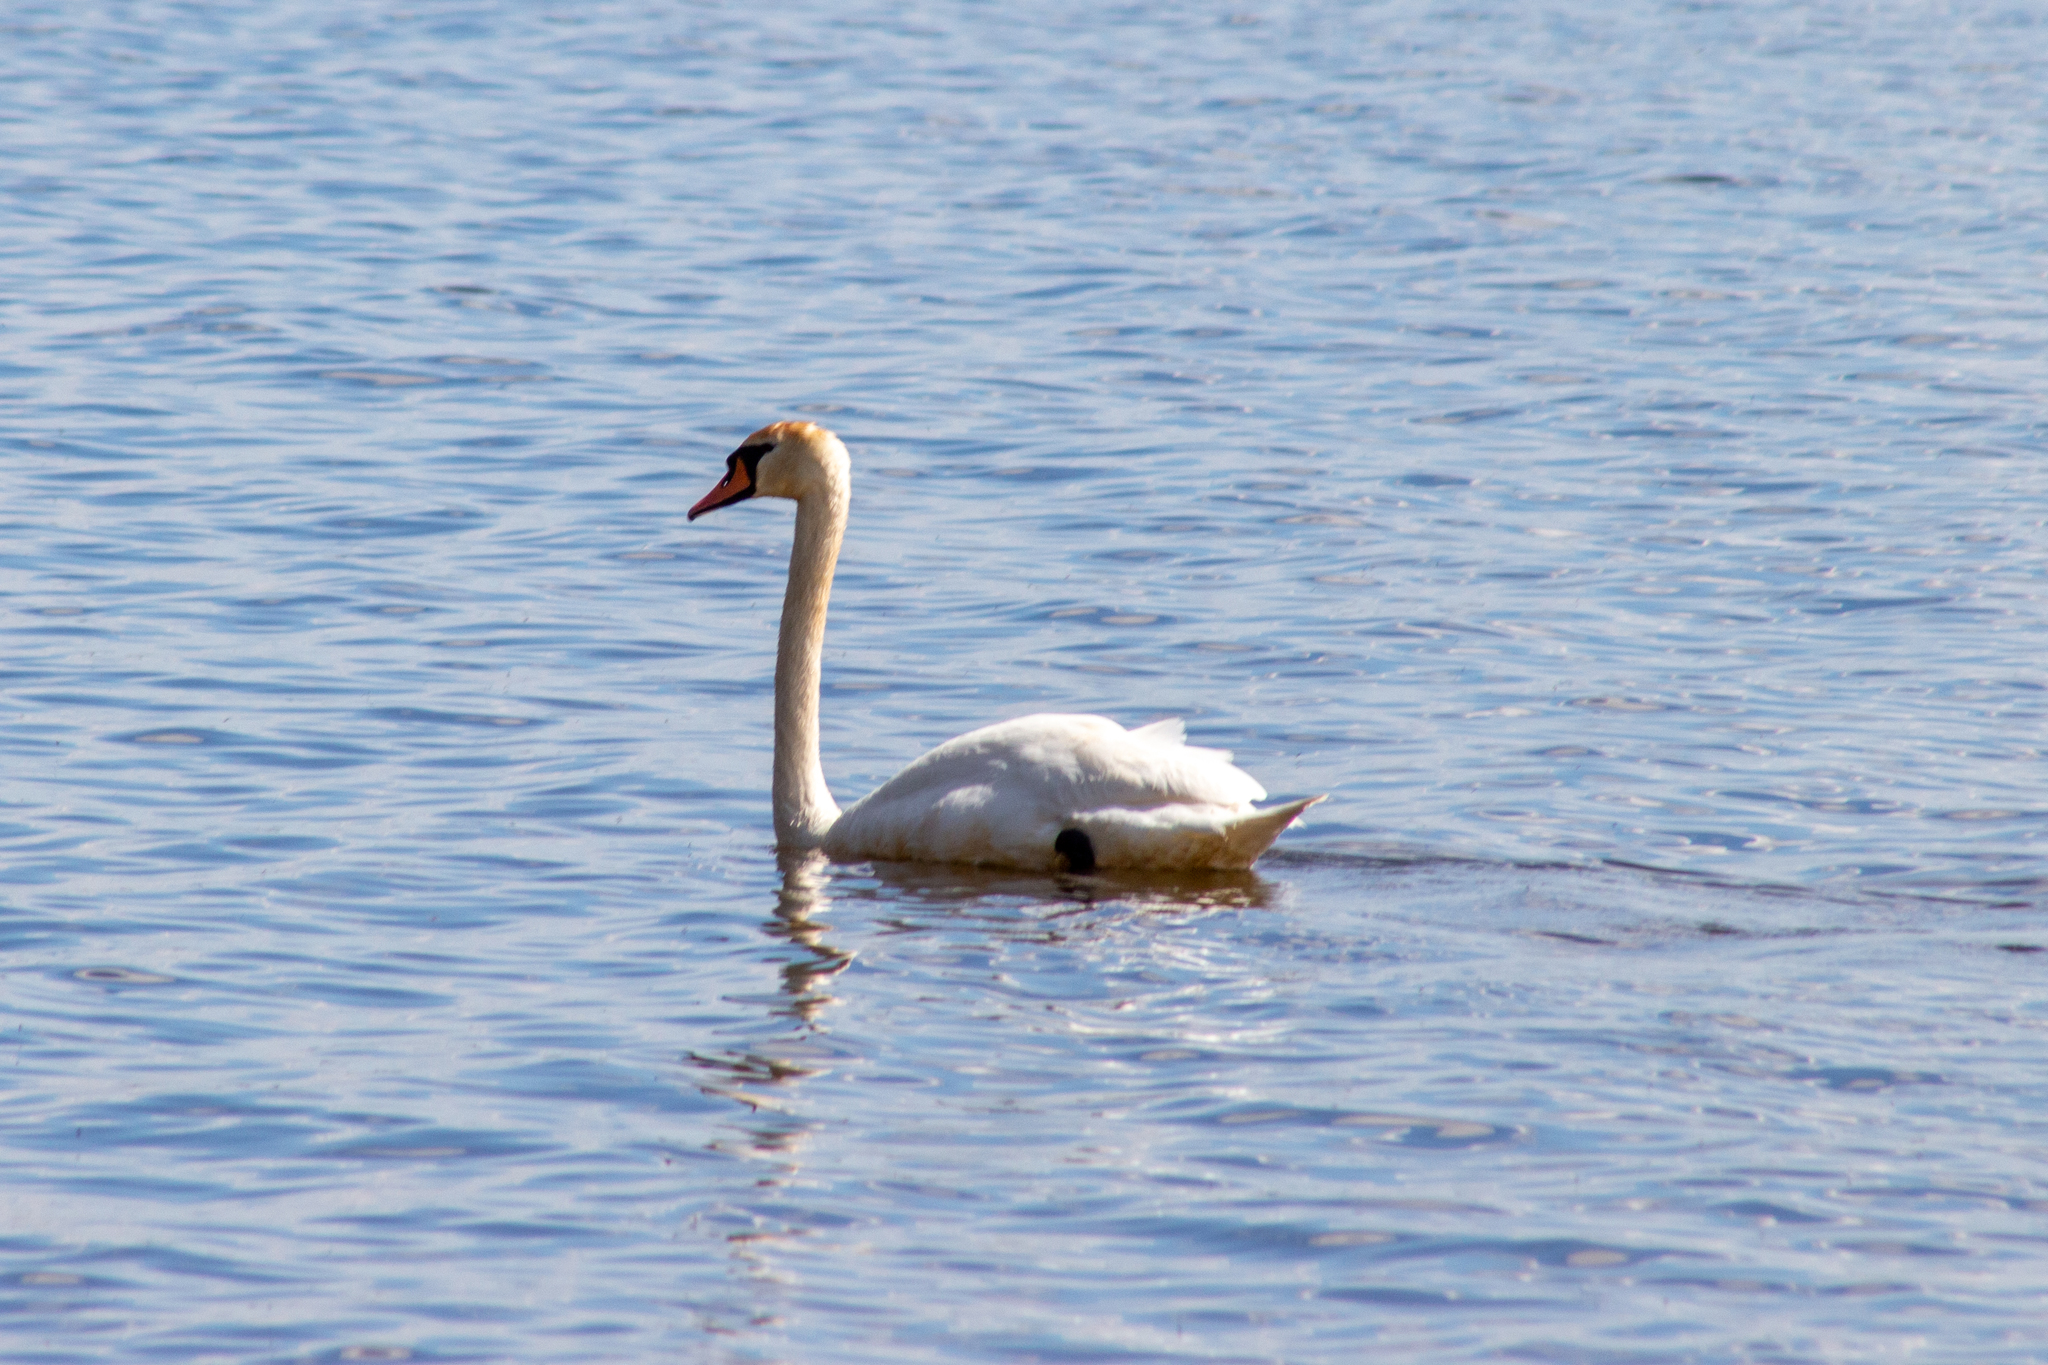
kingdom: Animalia
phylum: Chordata
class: Aves
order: Anseriformes
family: Anatidae
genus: Cygnus
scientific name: Cygnus olor
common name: Mute swan
